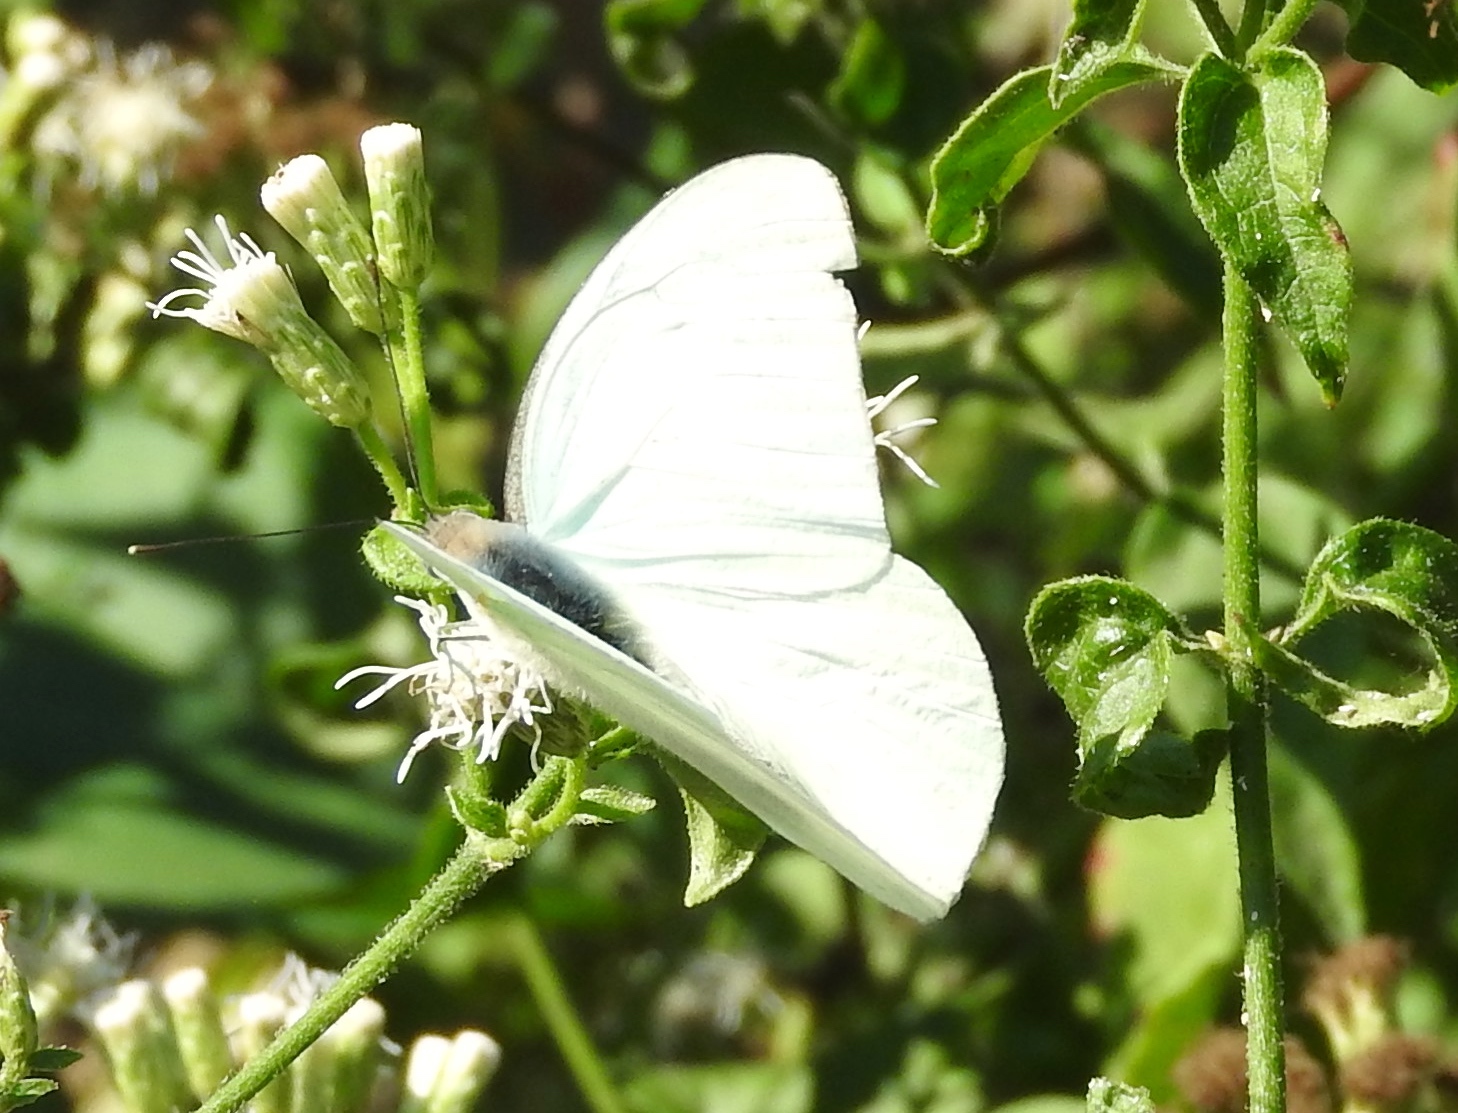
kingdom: Animalia
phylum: Arthropoda
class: Insecta
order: Lepidoptera
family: Pieridae
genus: Glutophrissa
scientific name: Glutophrissa drusilla
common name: Florida white
